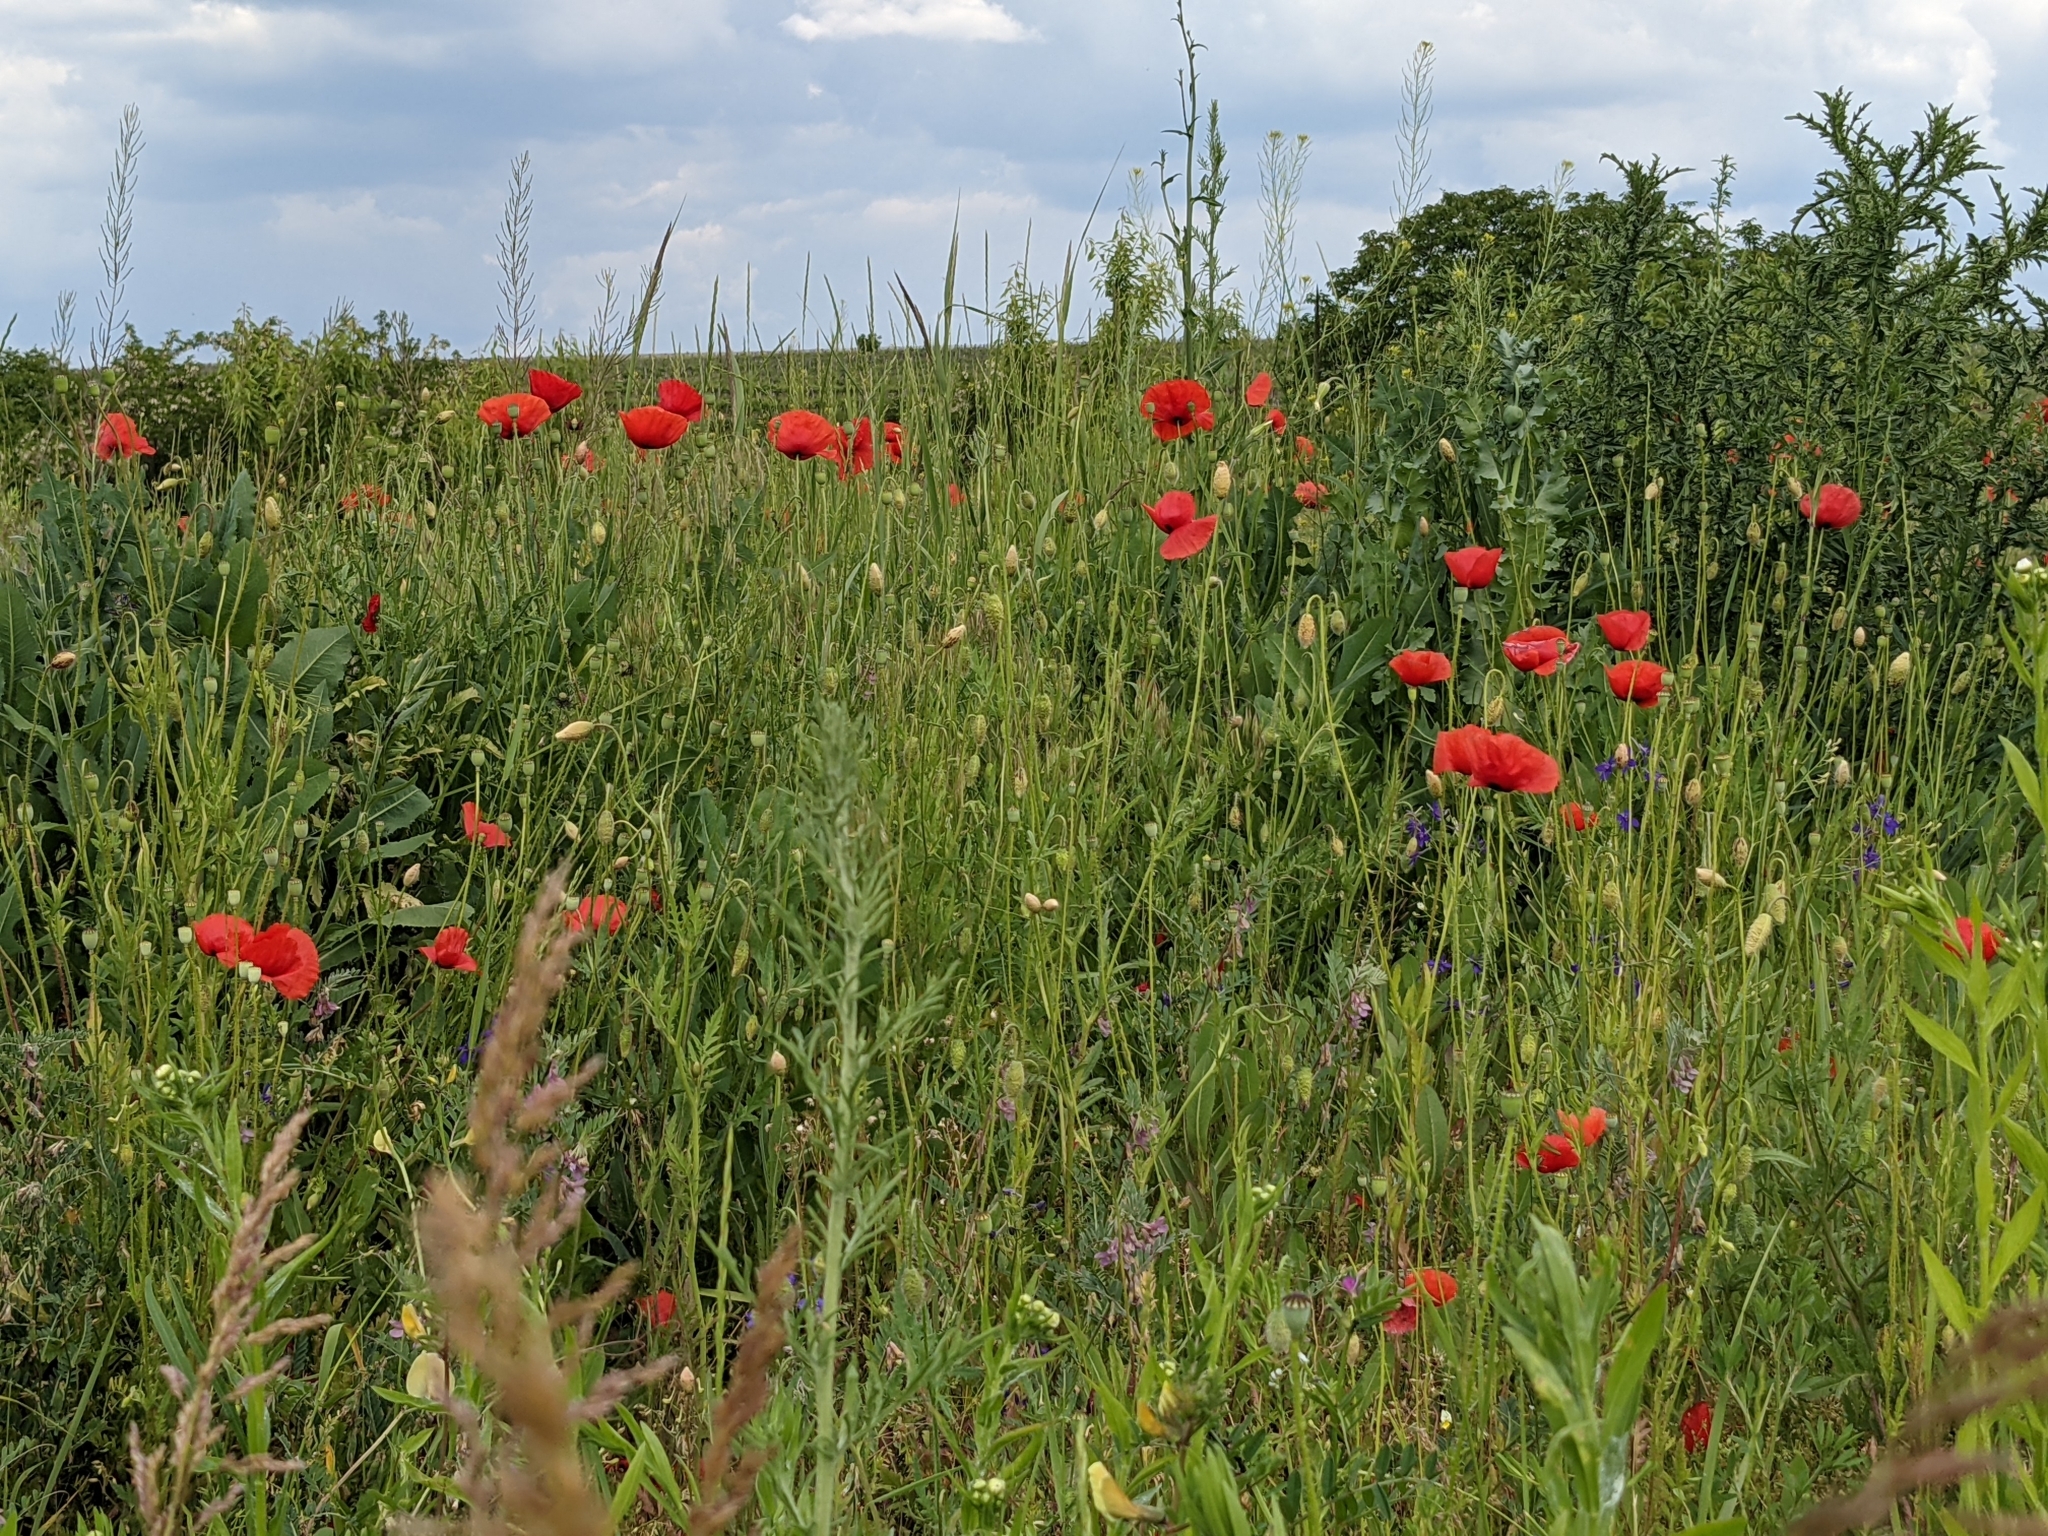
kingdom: Plantae
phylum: Tracheophyta
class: Magnoliopsida
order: Ranunculales
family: Papaveraceae
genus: Papaver
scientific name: Papaver rhoeas
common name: Corn poppy
